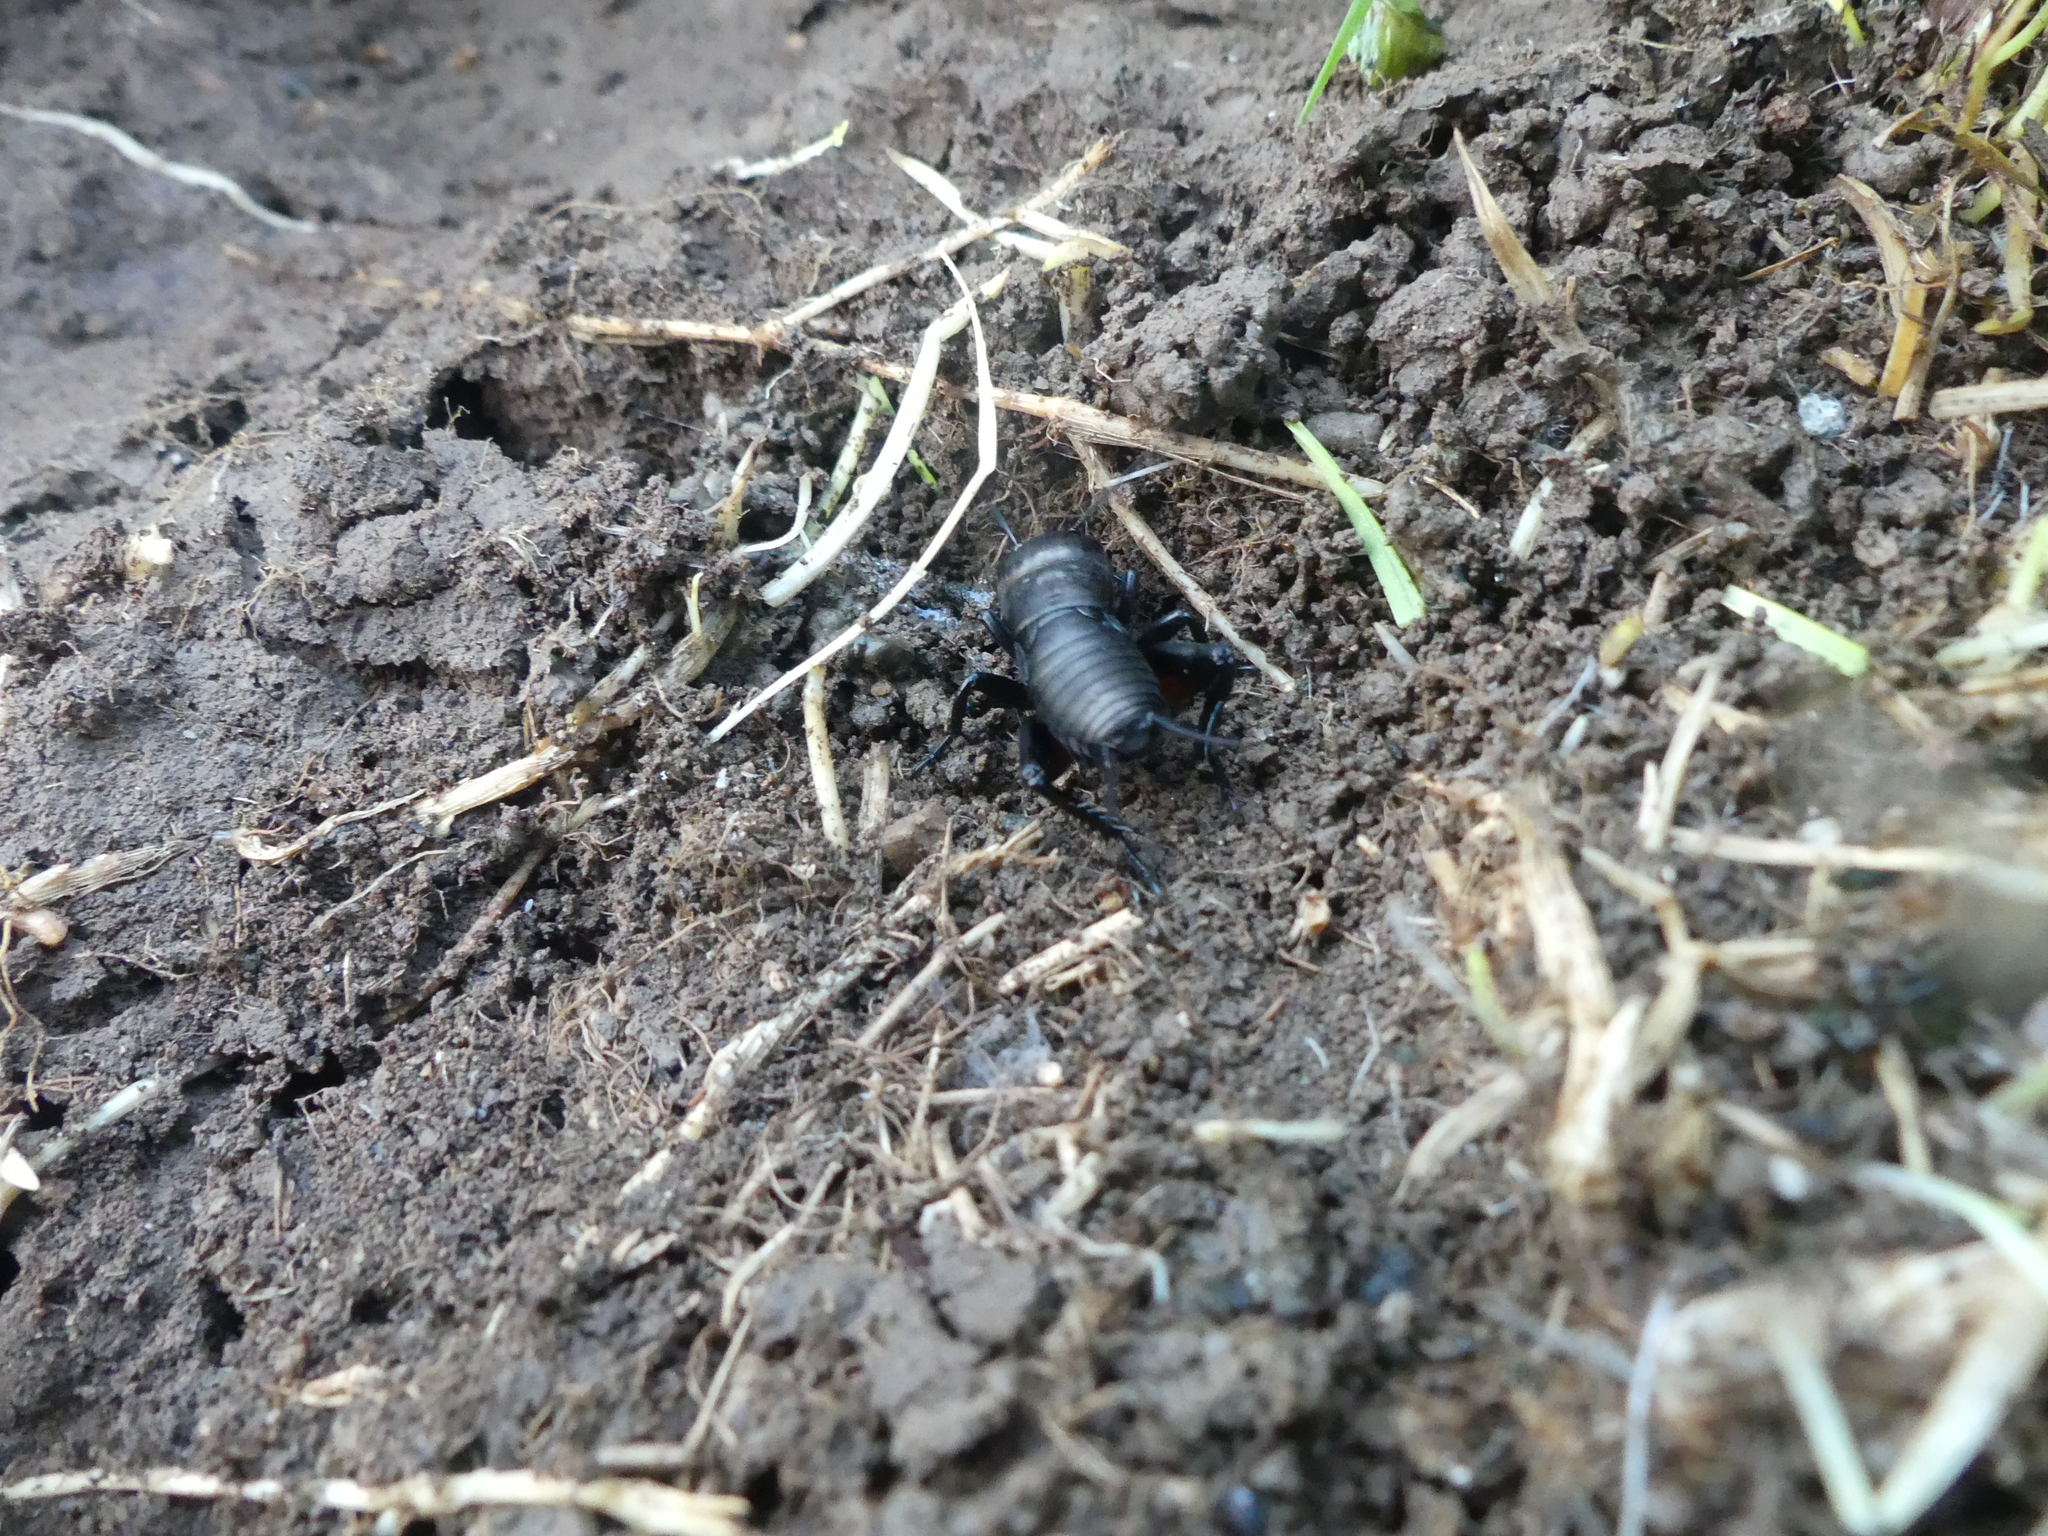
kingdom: Animalia
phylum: Arthropoda
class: Insecta
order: Orthoptera
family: Gryllidae
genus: Gryllus
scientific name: Gryllus campestris
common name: Field cricket
